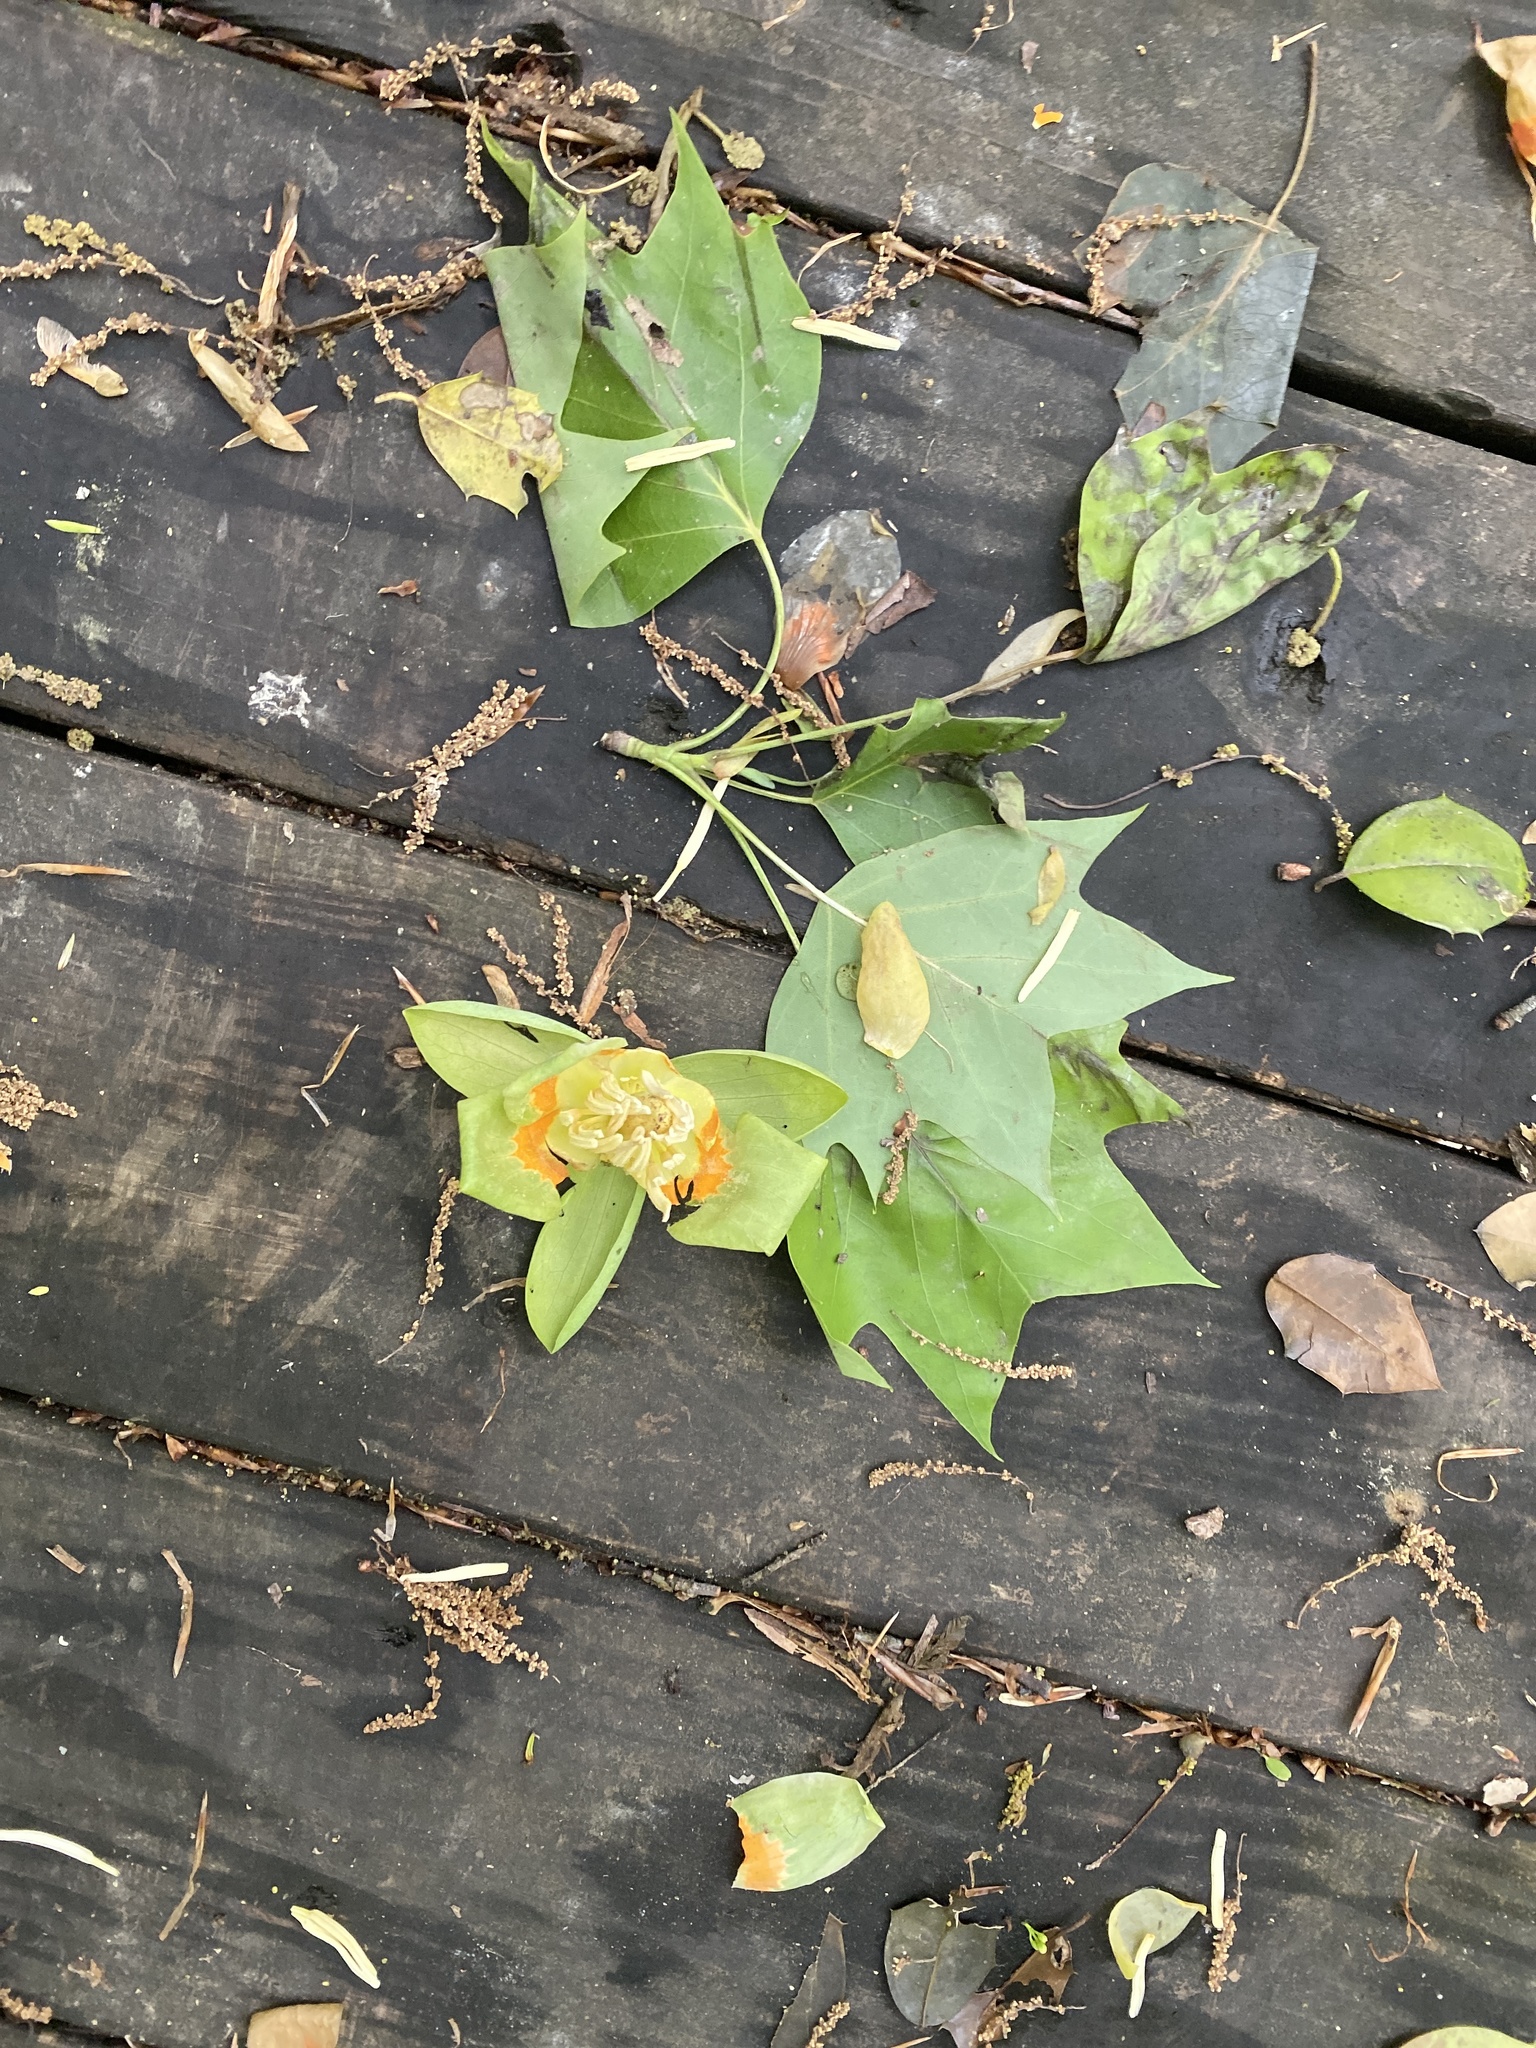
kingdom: Plantae
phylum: Tracheophyta
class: Magnoliopsida
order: Magnoliales
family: Magnoliaceae
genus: Liriodendron
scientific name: Liriodendron tulipifera
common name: Tulip tree
